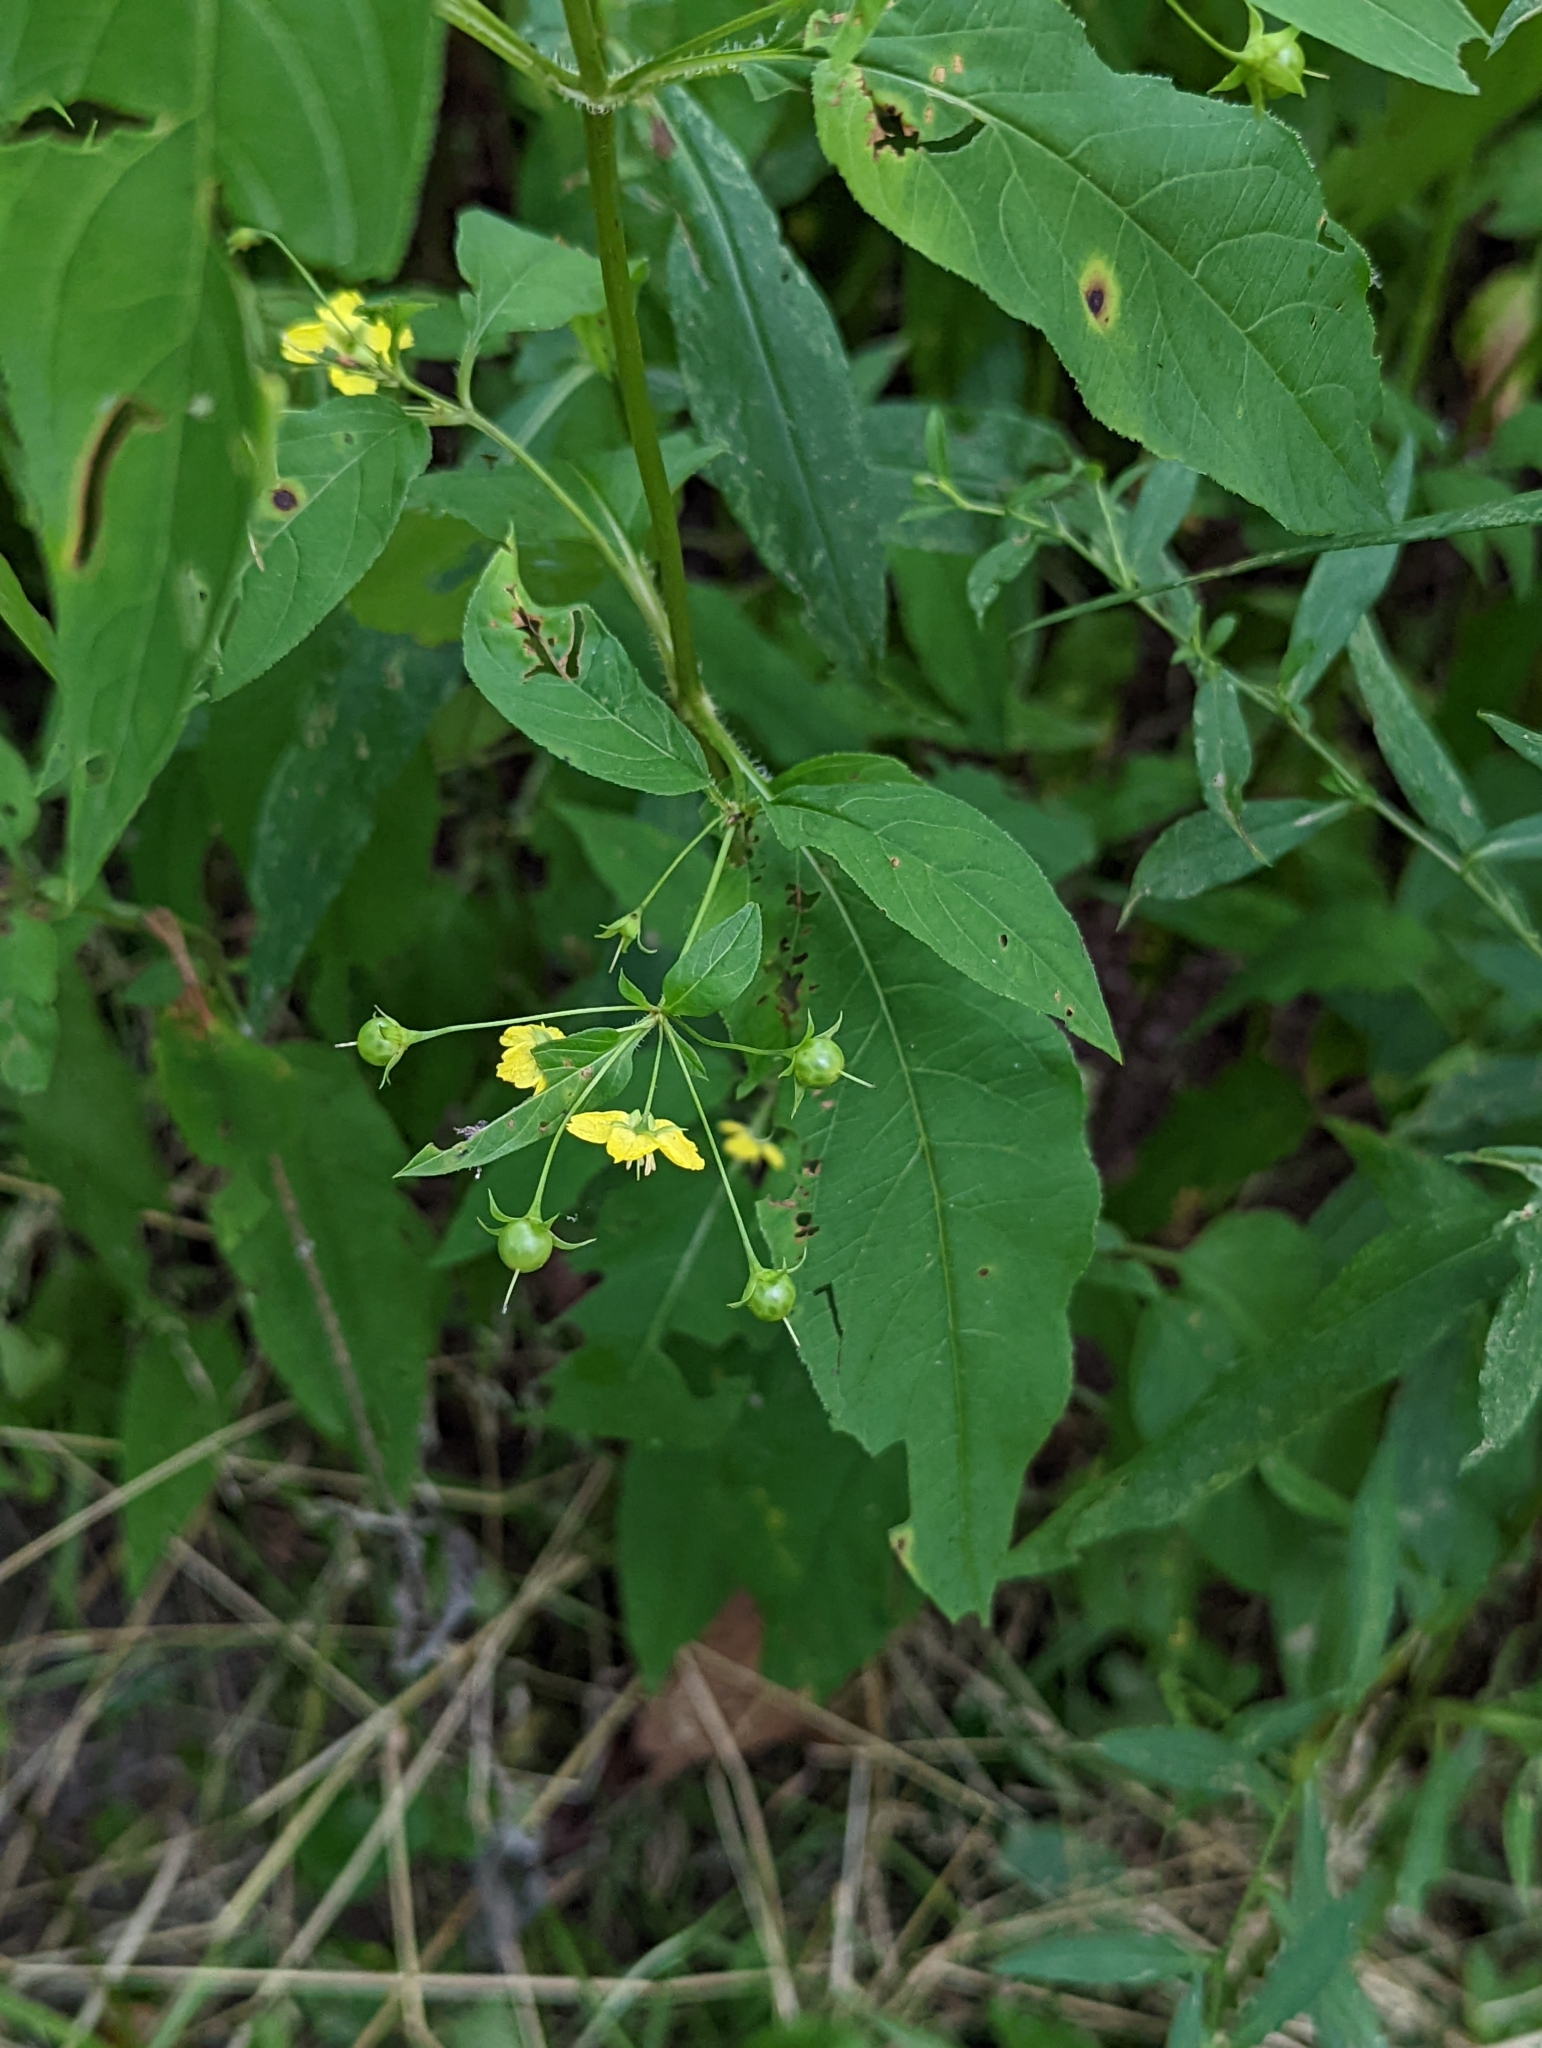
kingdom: Plantae
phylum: Tracheophyta
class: Magnoliopsida
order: Ericales
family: Primulaceae
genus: Lysimachia
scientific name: Lysimachia ciliata
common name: Fringed loosestrife
